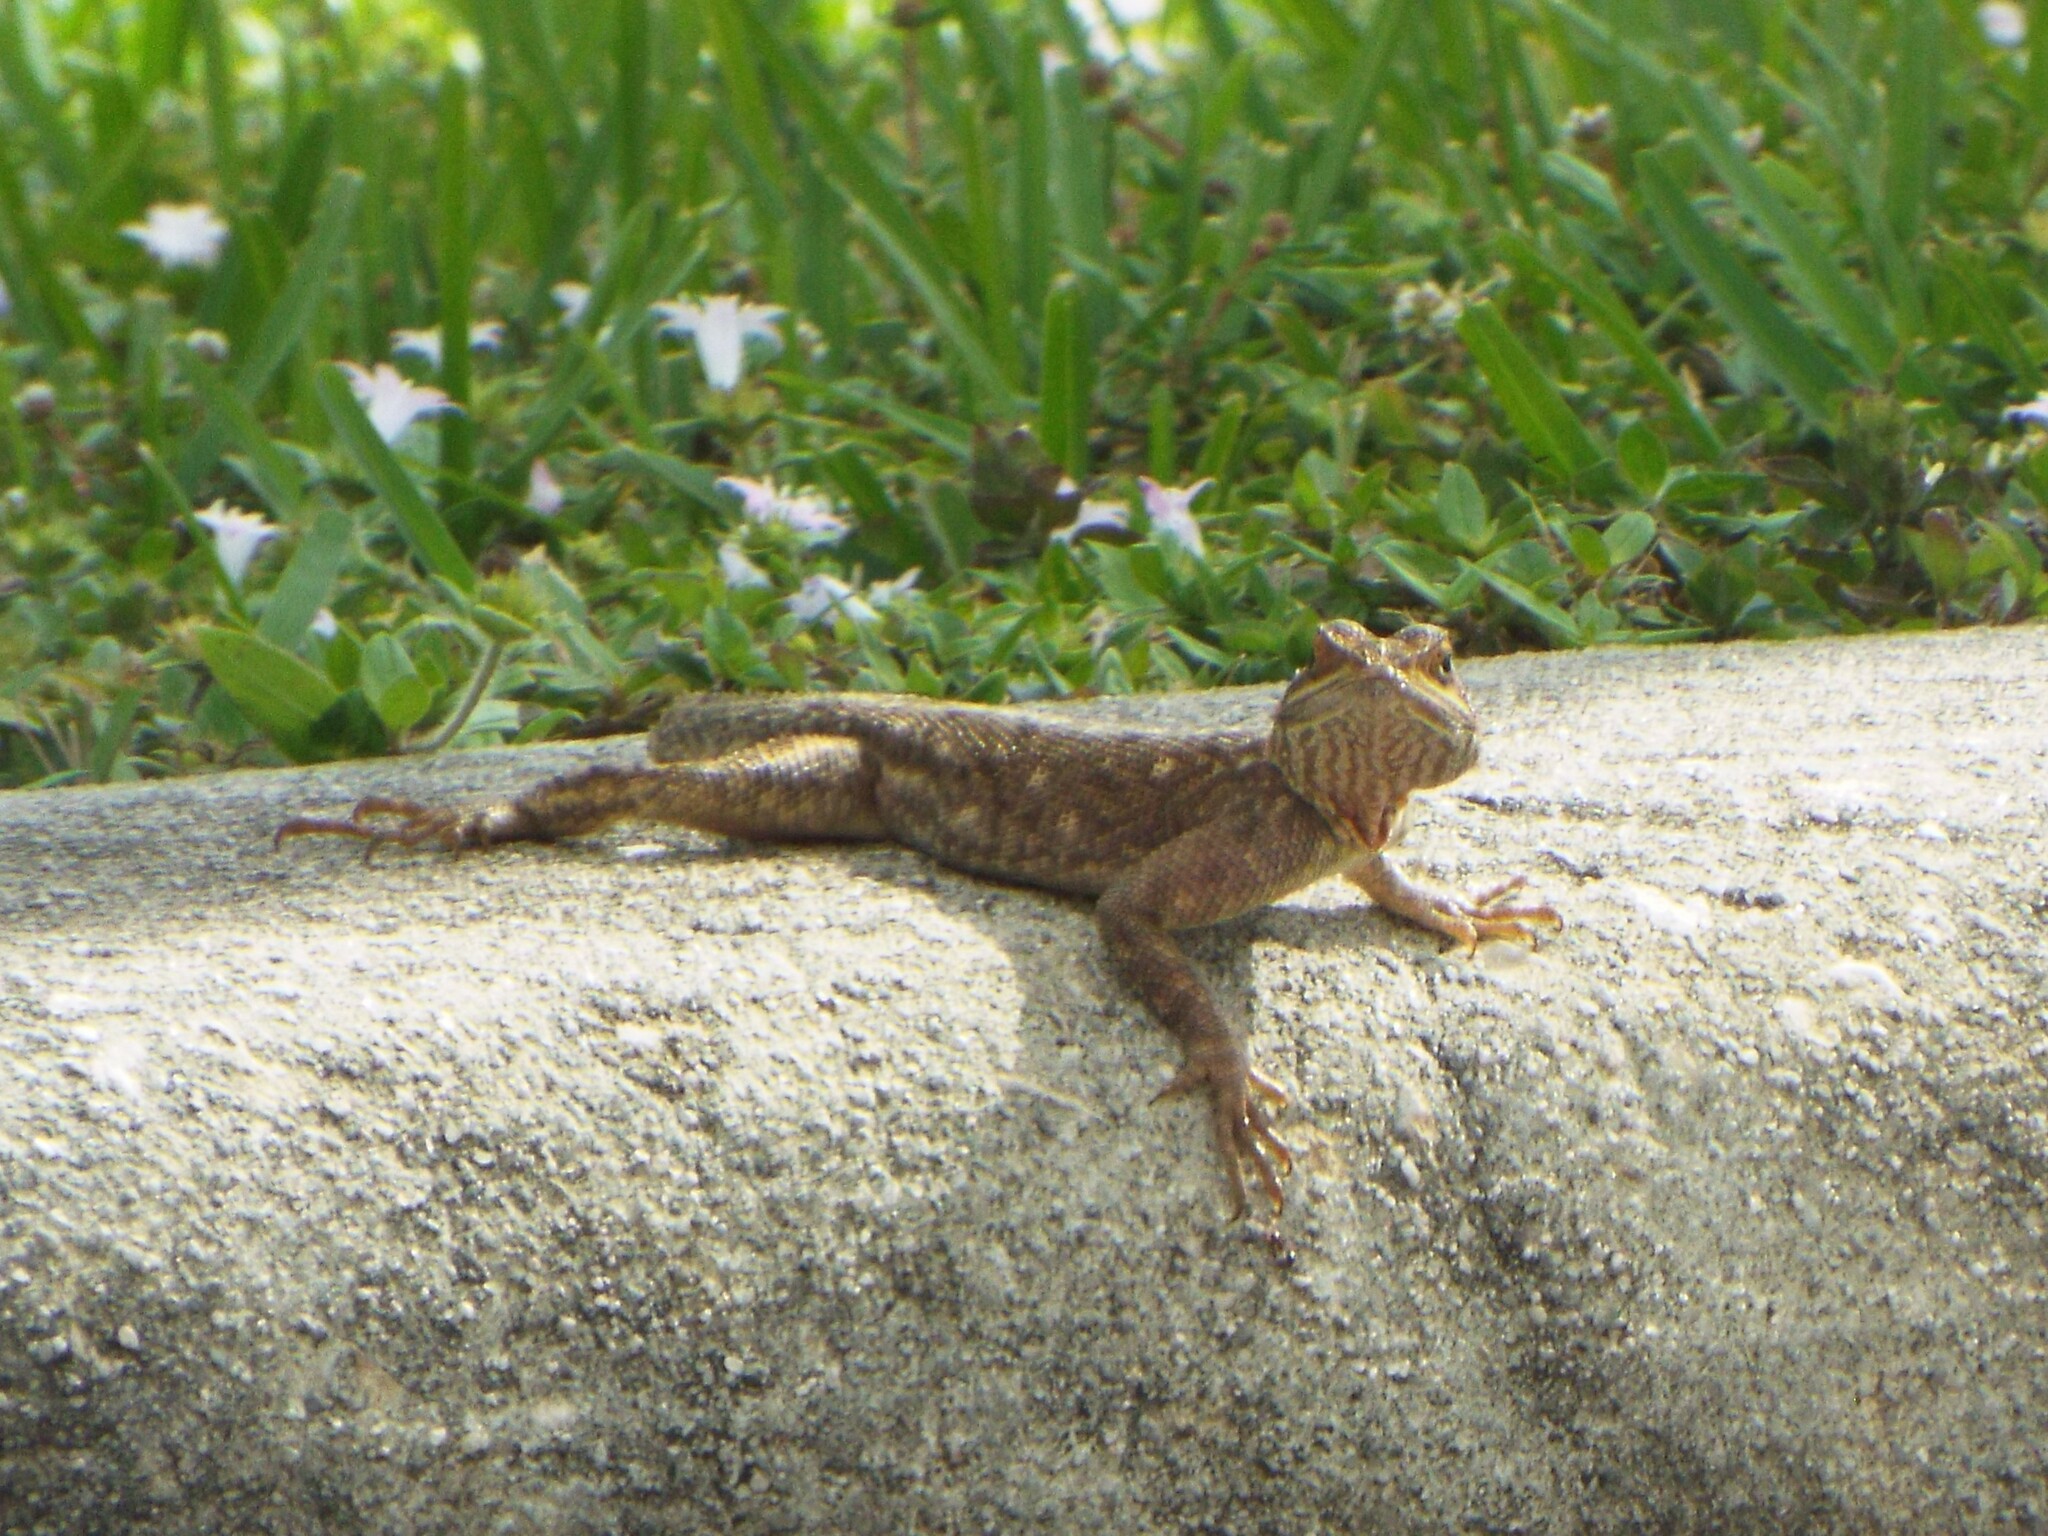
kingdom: Animalia
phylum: Chordata
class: Squamata
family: Agamidae
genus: Agama
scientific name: Agama picticauda
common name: Red-headed agama
